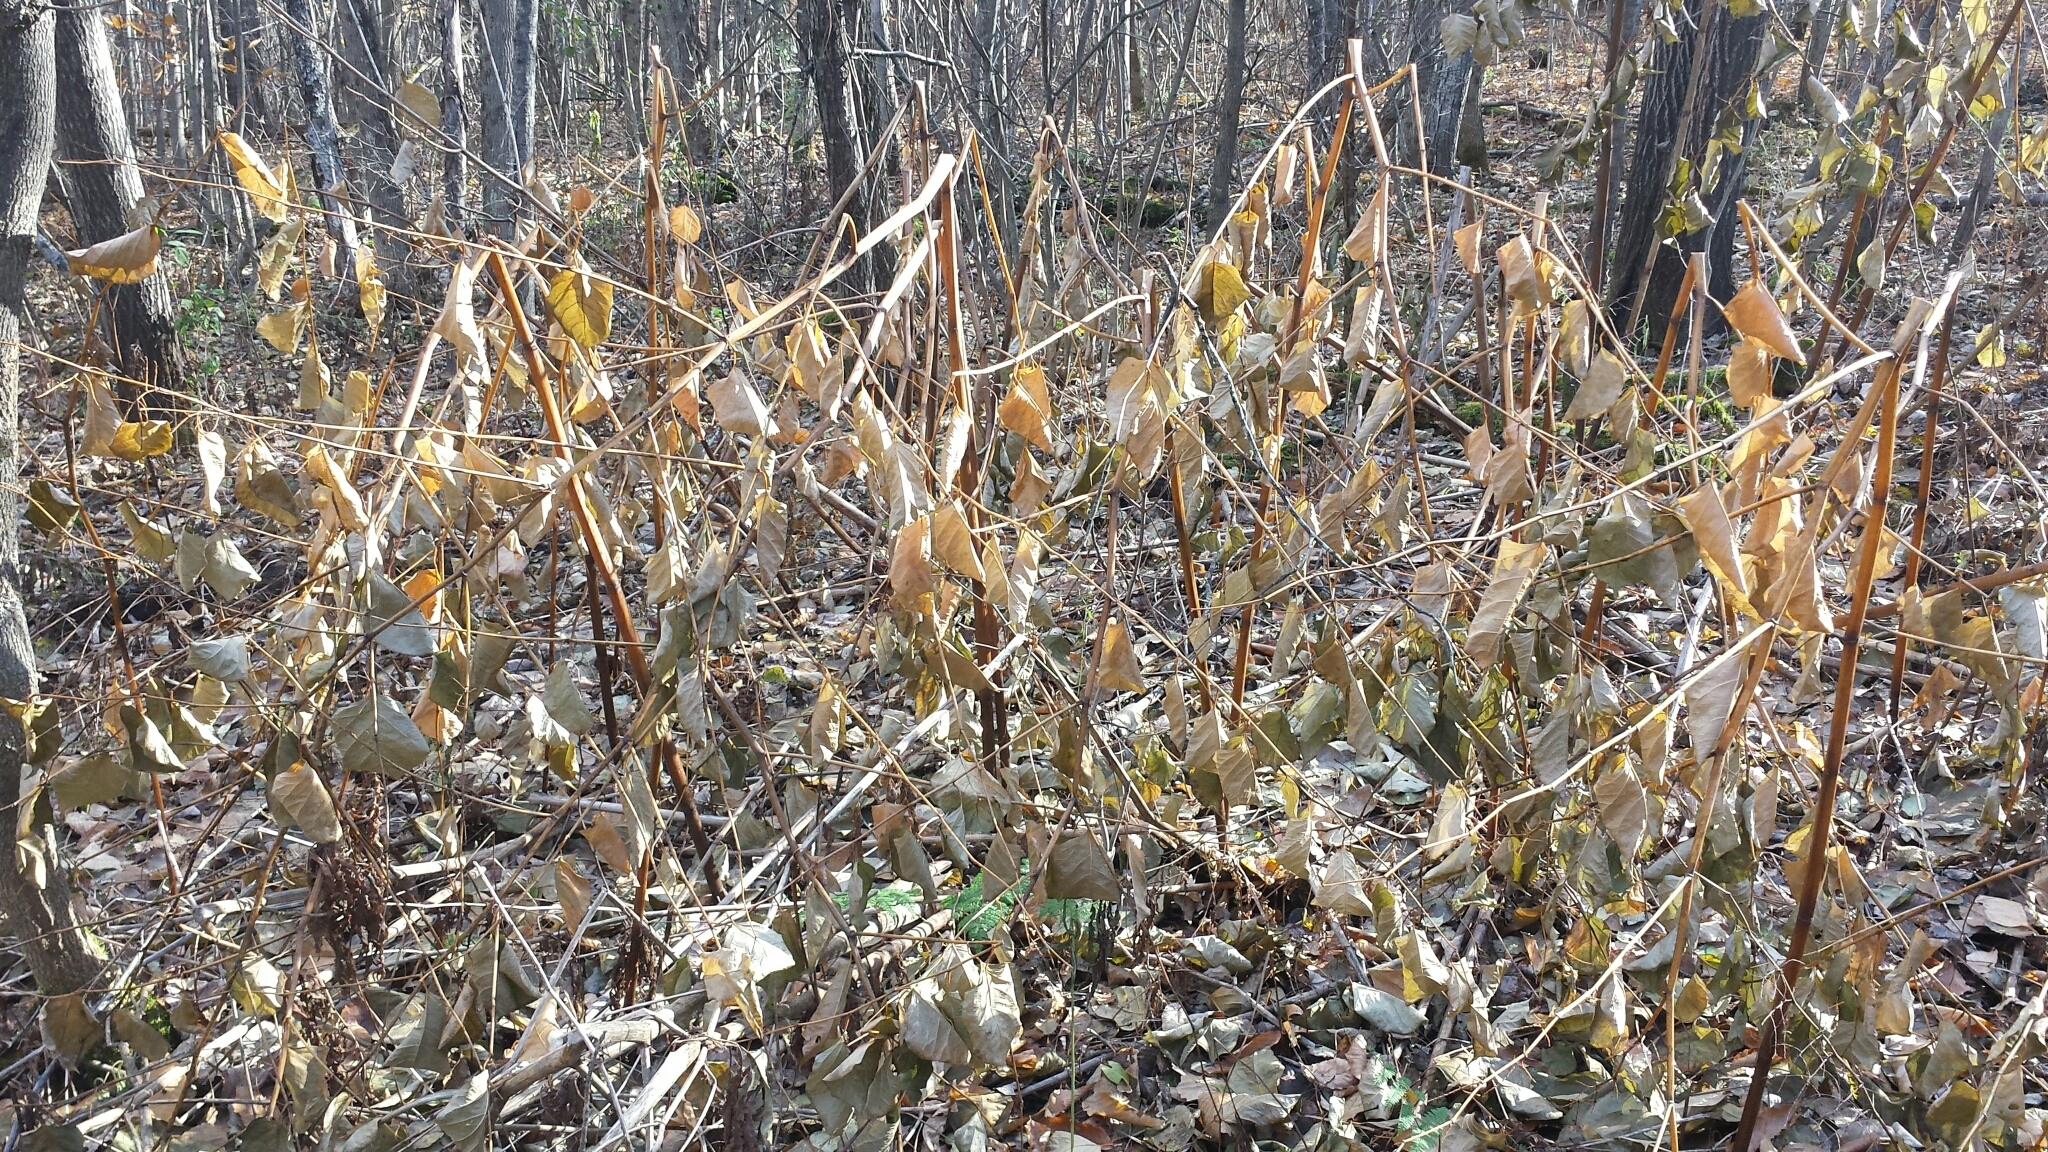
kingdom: Plantae
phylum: Tracheophyta
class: Magnoliopsida
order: Caryophyllales
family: Polygonaceae
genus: Reynoutria
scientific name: Reynoutria japonica
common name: Japanese knotweed
